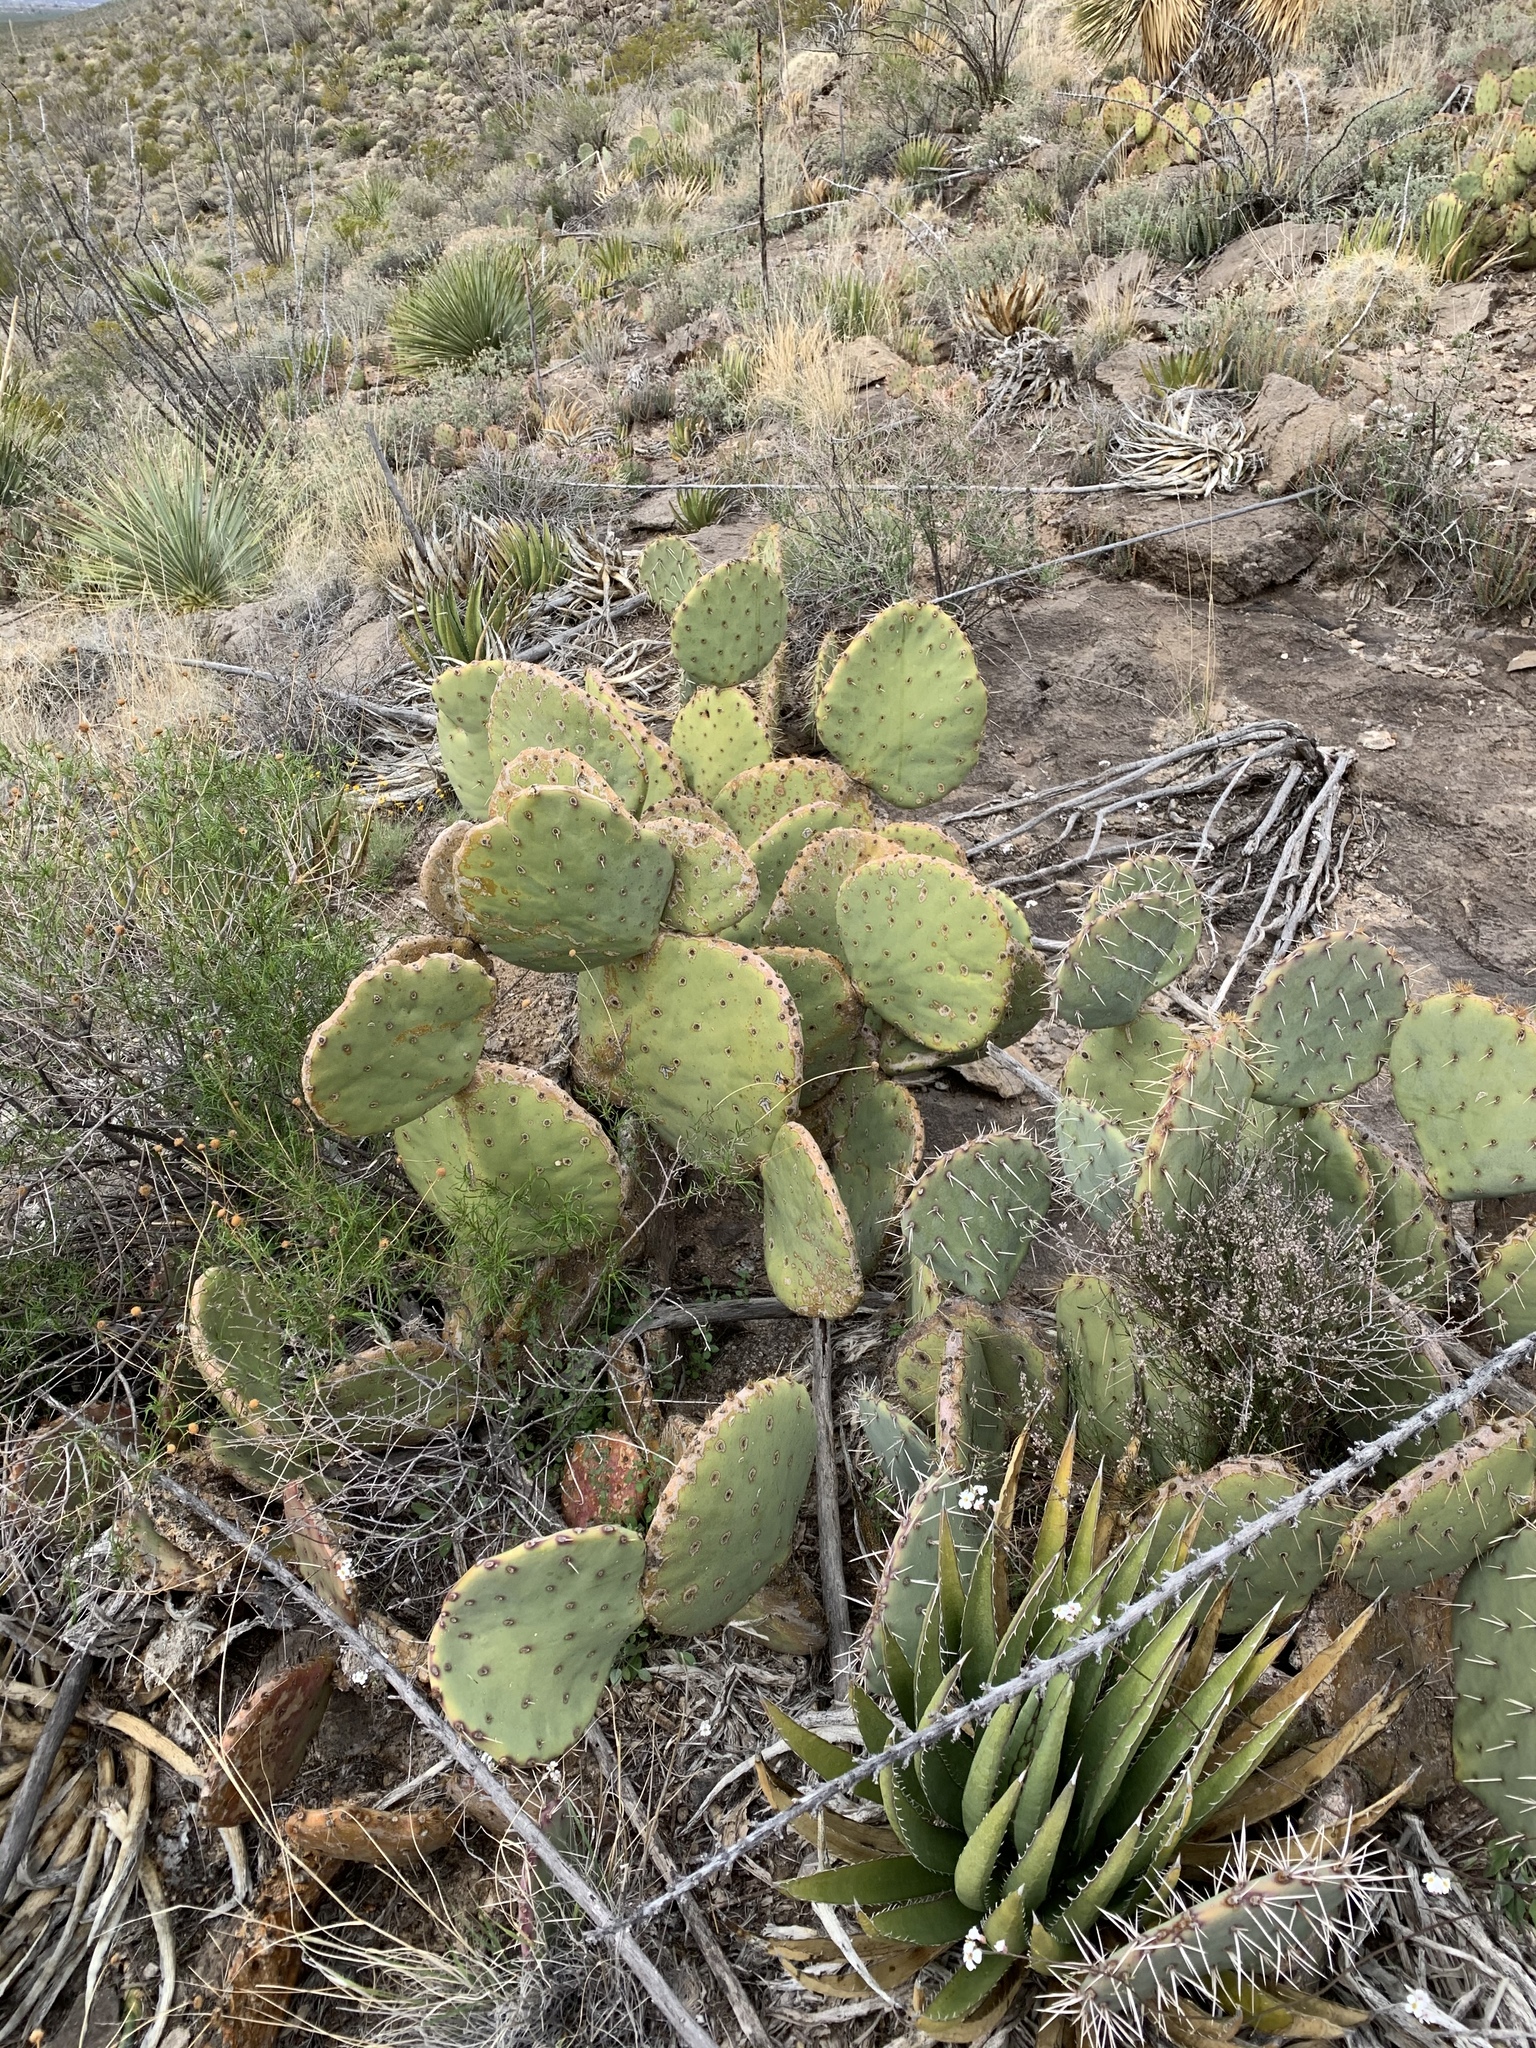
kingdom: Plantae
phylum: Tracheophyta
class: Magnoliopsida
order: Caryophyllales
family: Cactaceae
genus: Opuntia
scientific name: Opuntia engelmannii
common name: Cactus-apple
